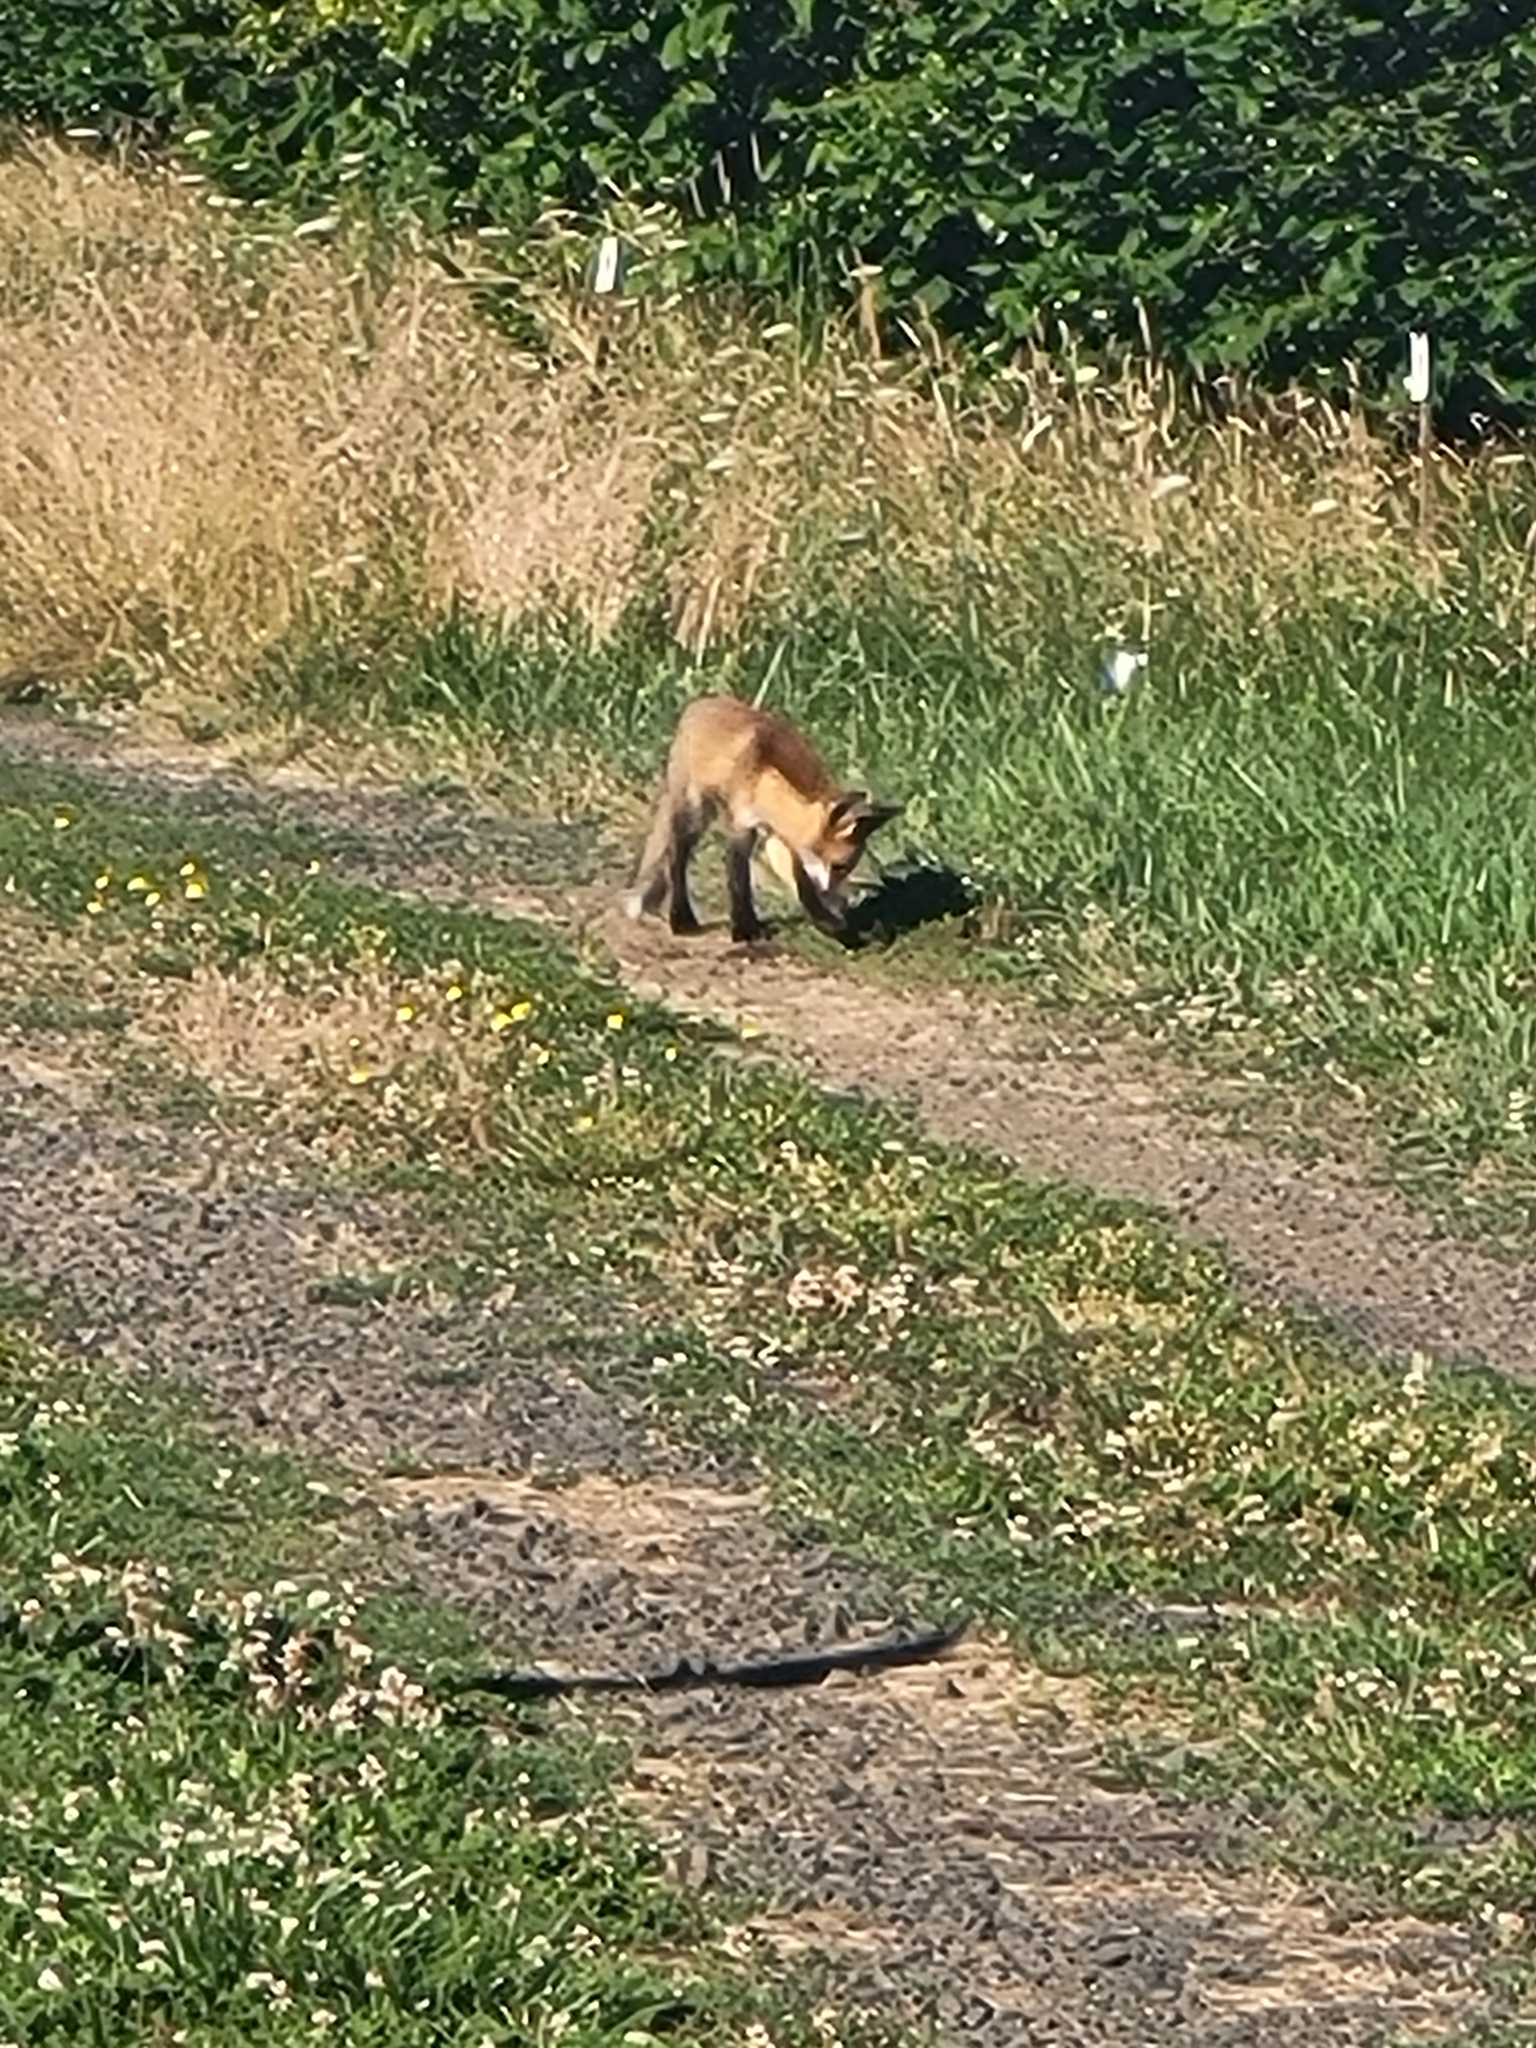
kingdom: Animalia
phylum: Chordata
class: Mammalia
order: Carnivora
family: Canidae
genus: Vulpes
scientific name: Vulpes vulpes
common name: Red fox
